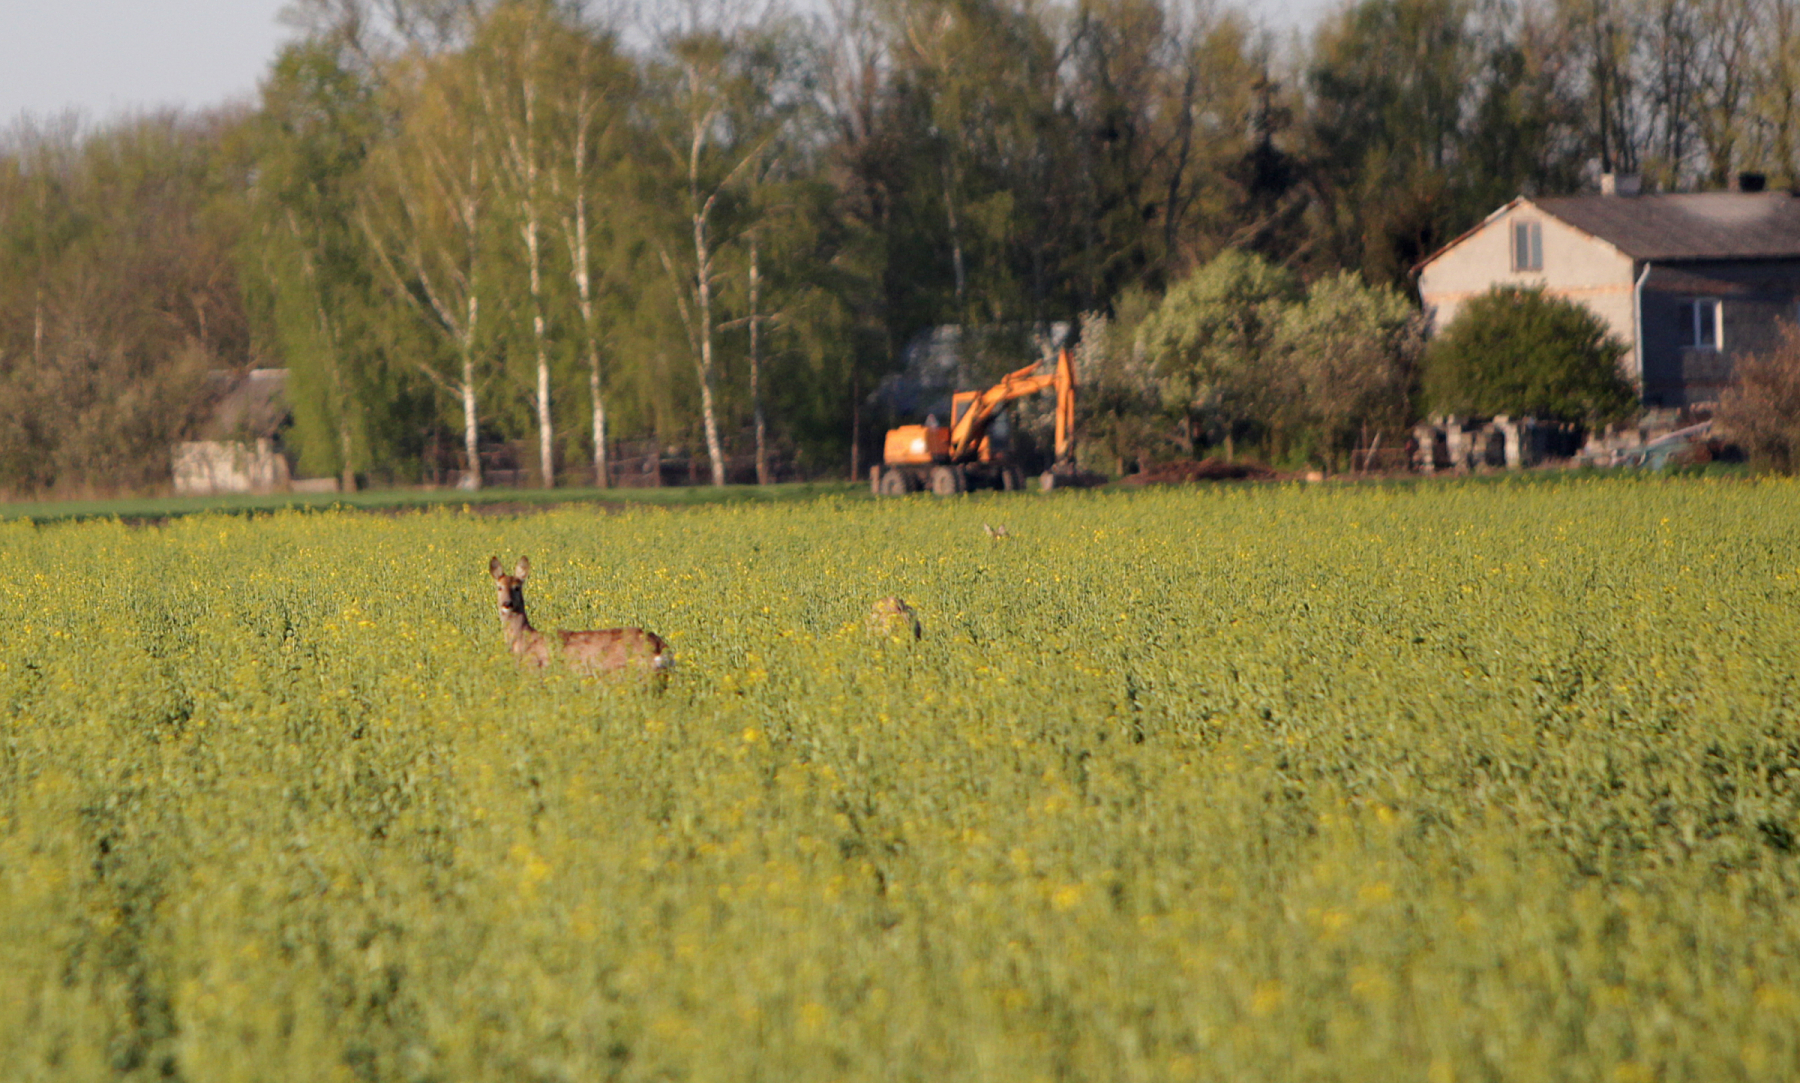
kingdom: Animalia
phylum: Chordata
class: Mammalia
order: Artiodactyla
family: Cervidae
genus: Capreolus
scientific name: Capreolus capreolus
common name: Western roe deer
